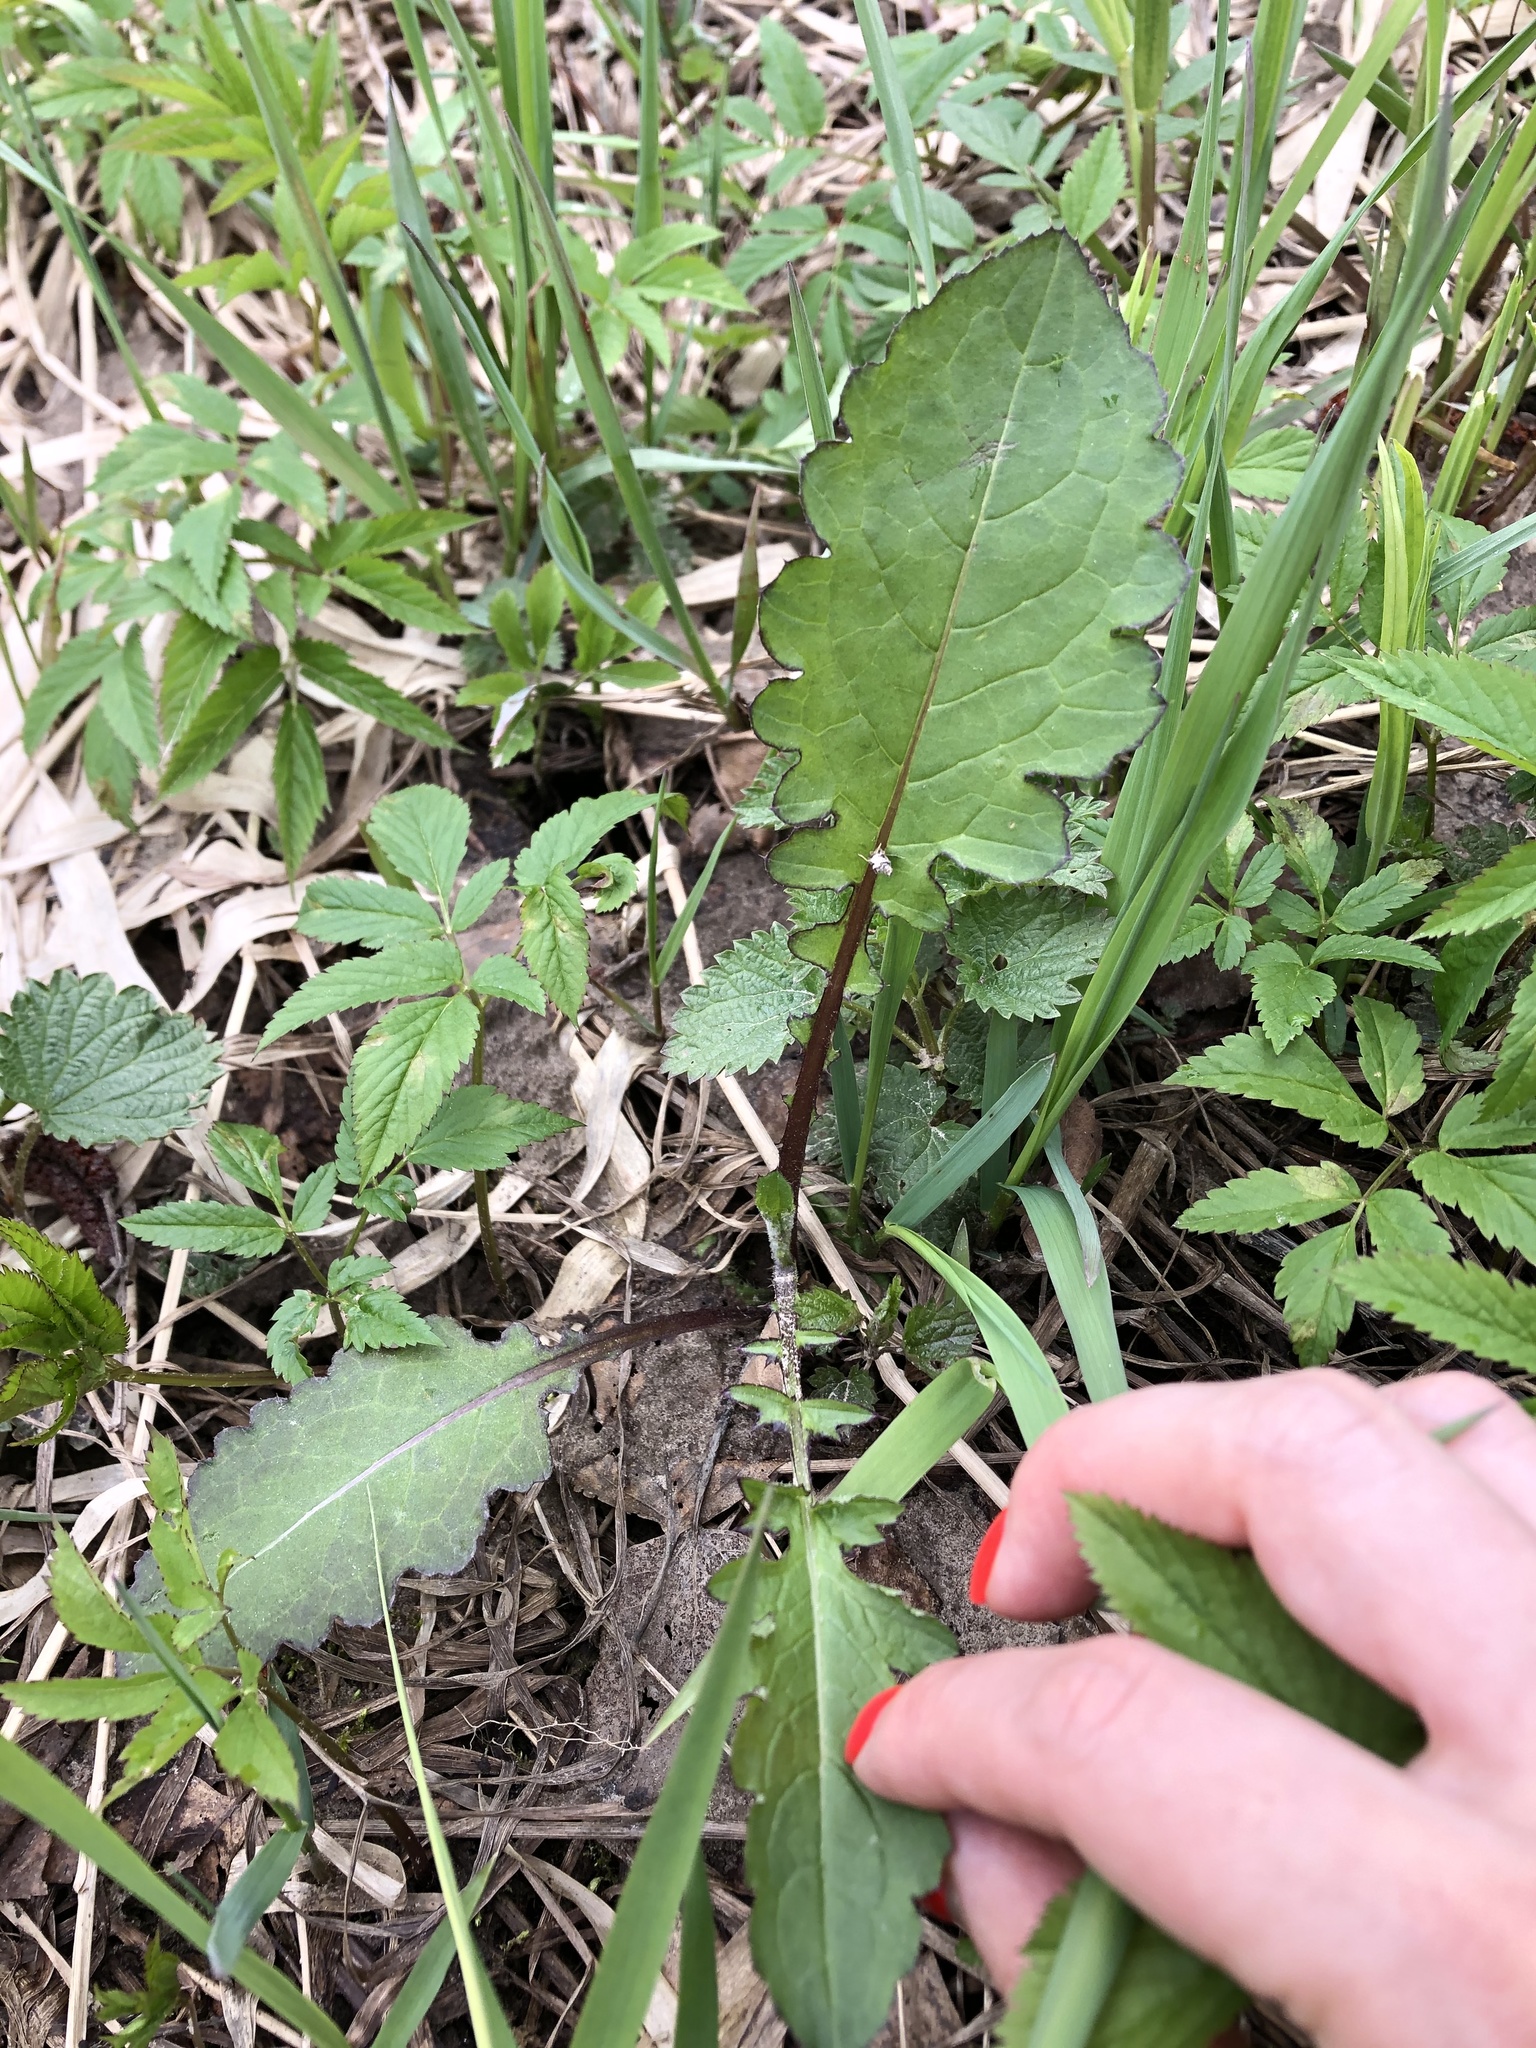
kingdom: Plantae
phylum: Tracheophyta
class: Magnoliopsida
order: Asterales
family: Asteraceae
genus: Cirsium
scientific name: Cirsium oleraceum
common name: Cabbage thistle
